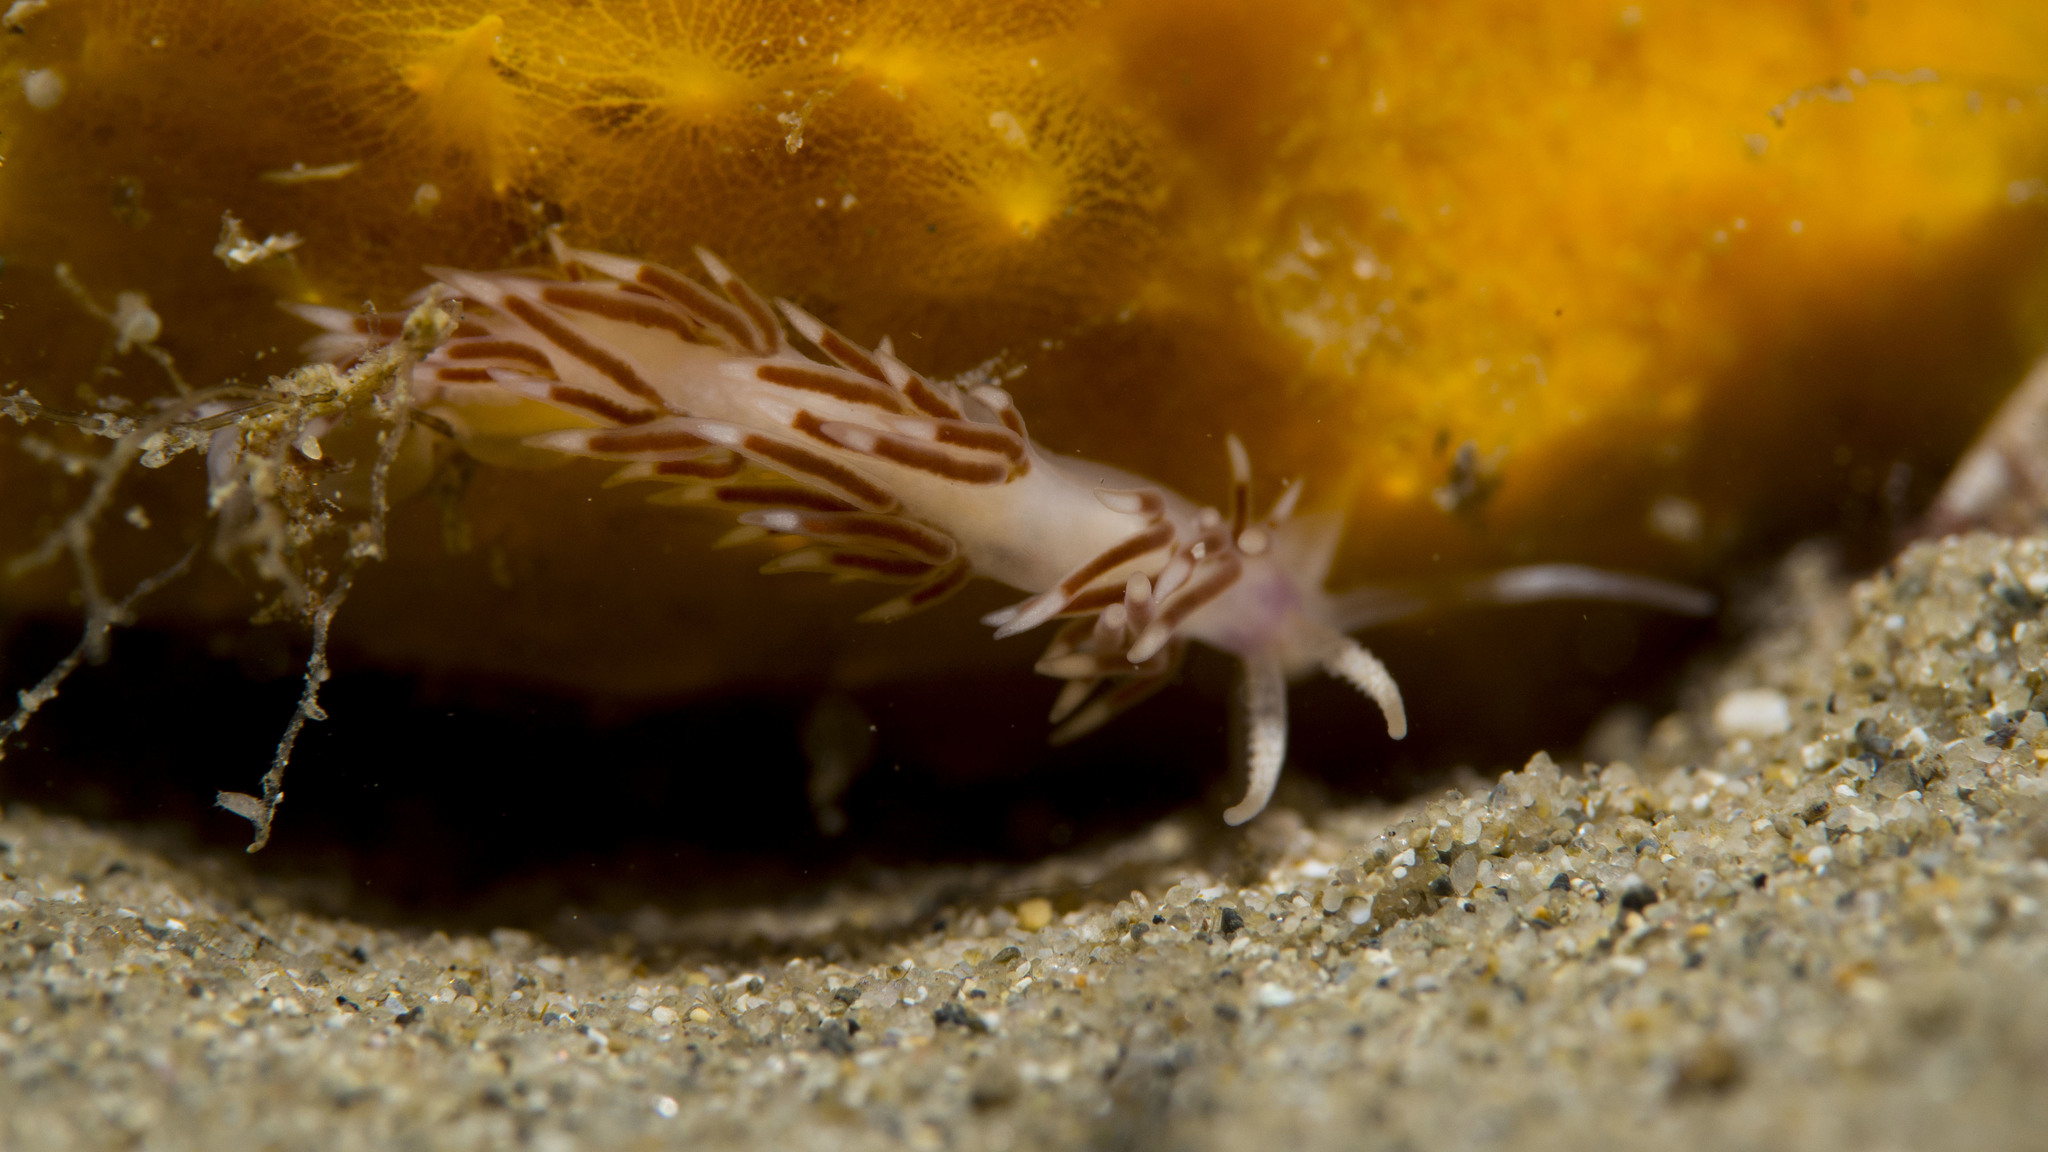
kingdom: Animalia
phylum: Mollusca
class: Gastropoda
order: Nudibranchia
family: Flabellinidae
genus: Coryphellina
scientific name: Coryphellina poenicia
